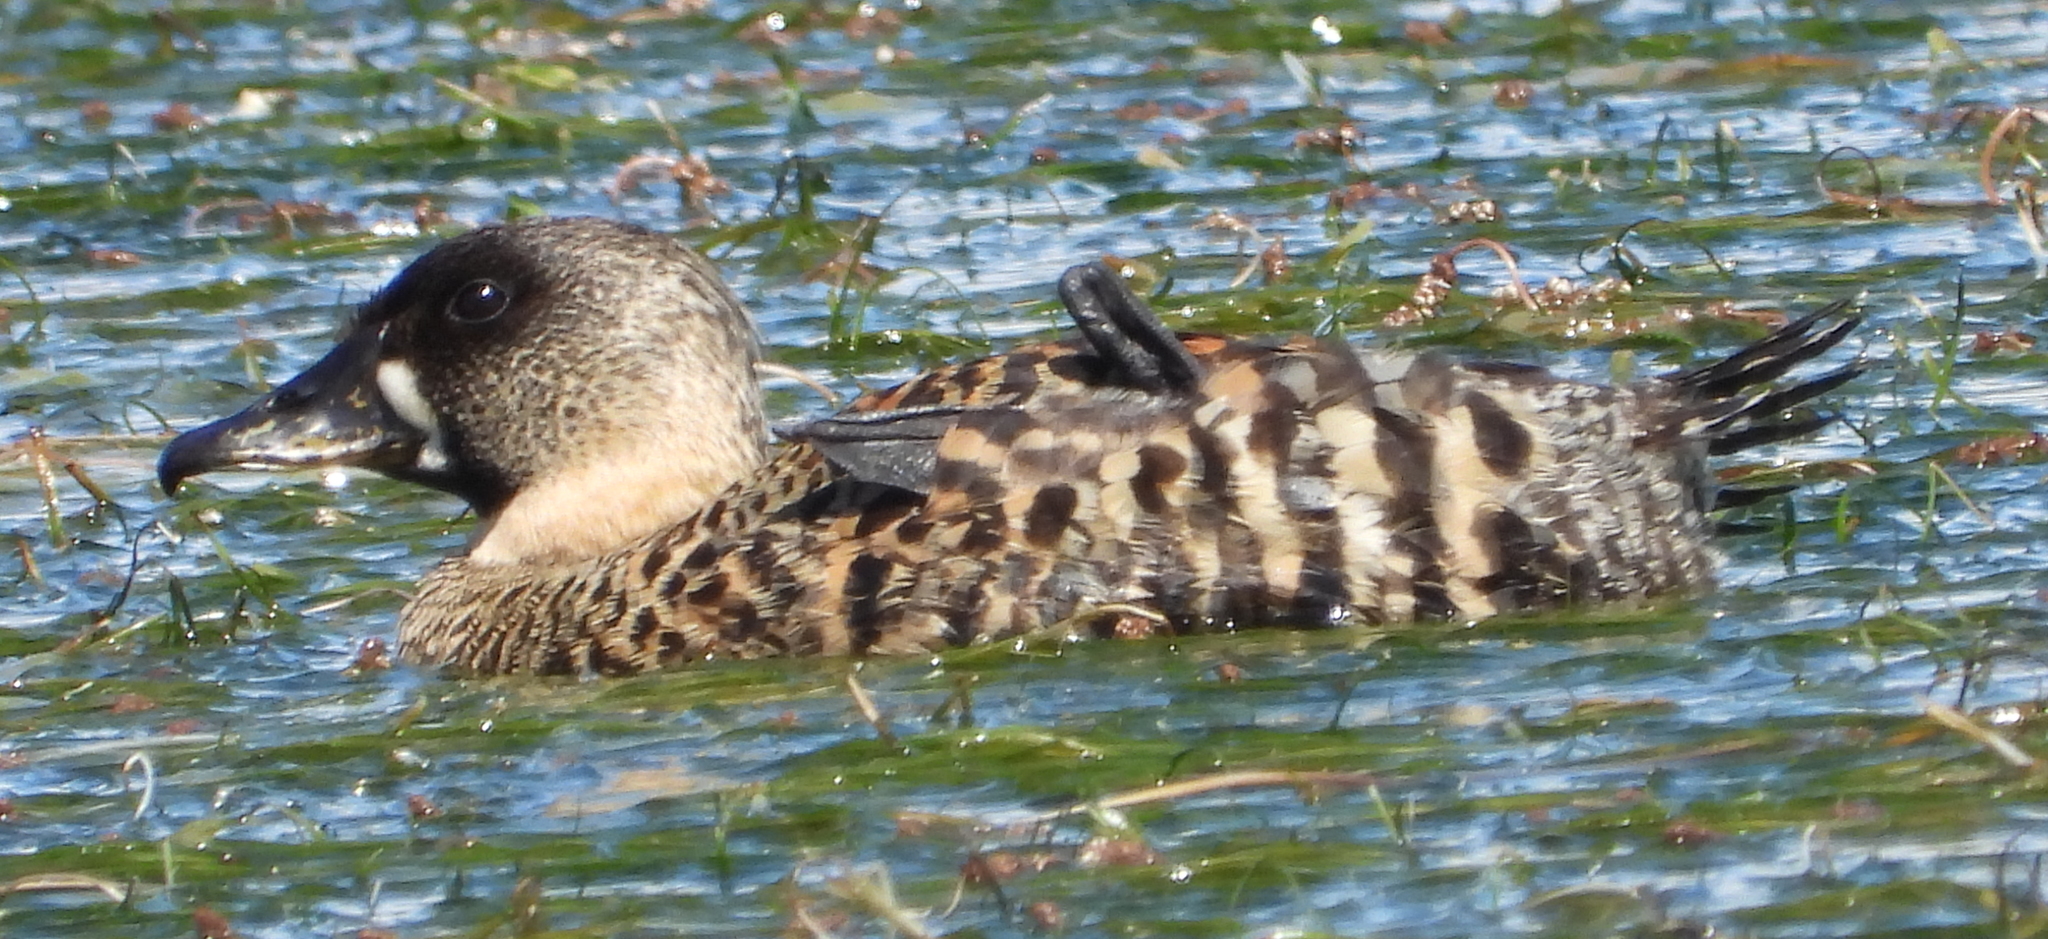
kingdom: Animalia
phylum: Chordata
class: Aves
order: Anseriformes
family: Anatidae
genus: Thalassornis
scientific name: Thalassornis leuconotus
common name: White-backed duck
